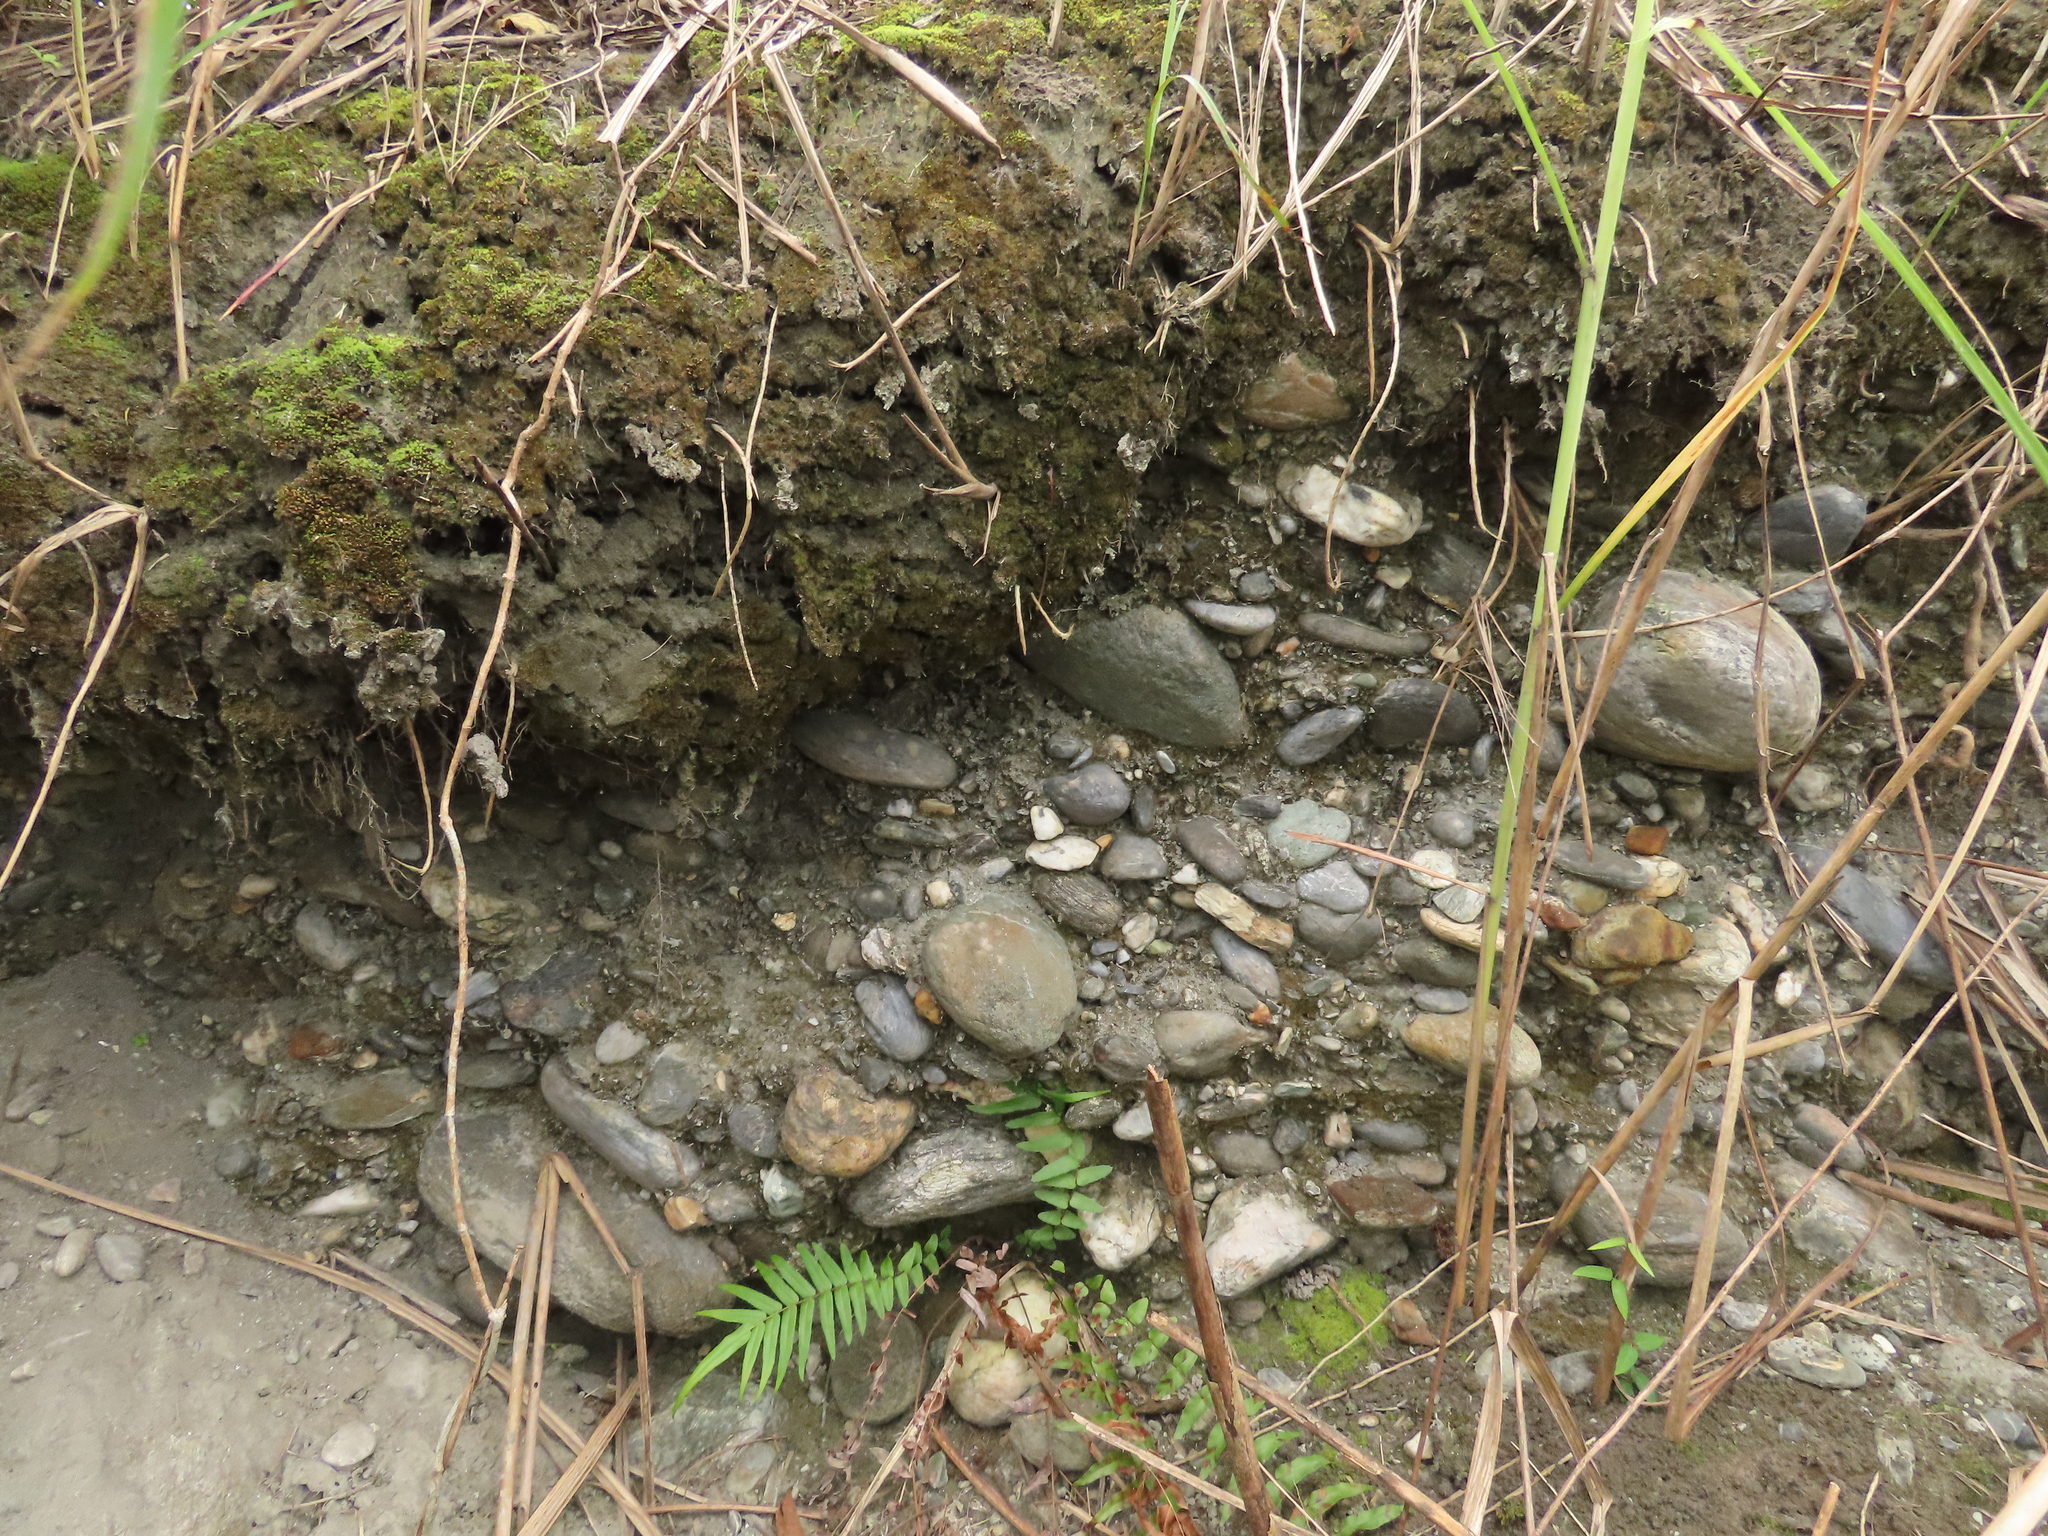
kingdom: Plantae
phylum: Tracheophyta
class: Polypodiopsida
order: Polypodiales
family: Pteridaceae
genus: Pteris
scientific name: Pteris vittata
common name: Ladder brake
